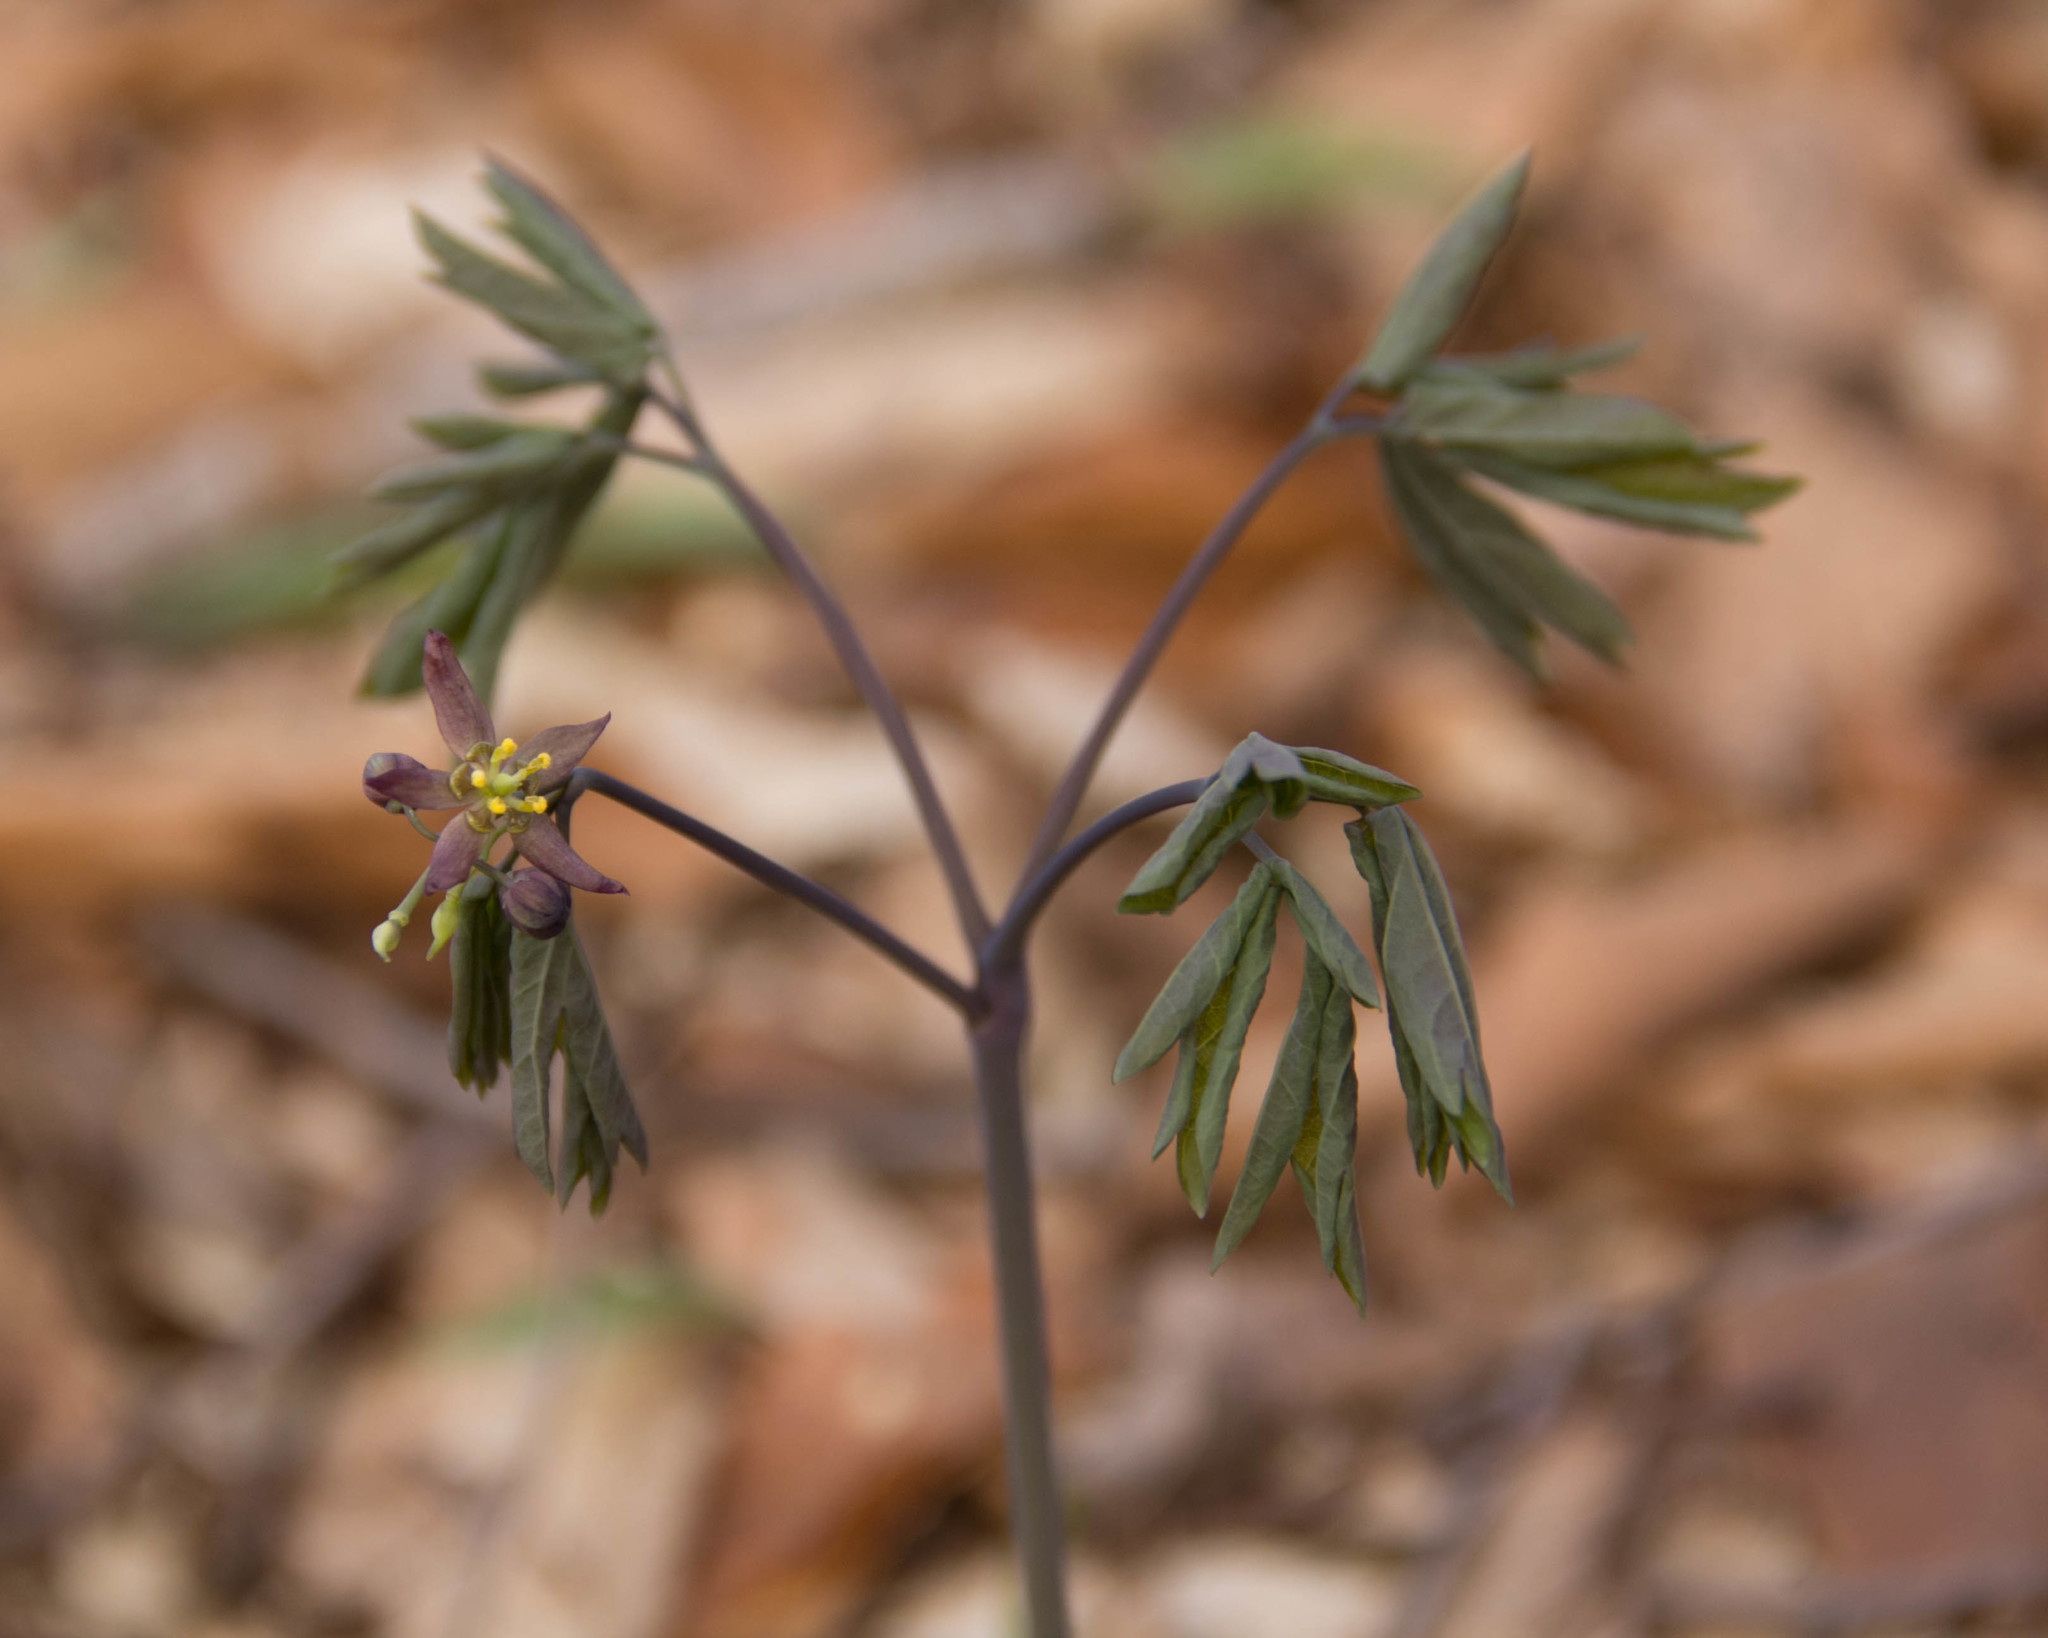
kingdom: Plantae
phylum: Tracheophyta
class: Magnoliopsida
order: Ranunculales
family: Berberidaceae
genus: Caulophyllum
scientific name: Caulophyllum giganteum
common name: Blue cohosh
